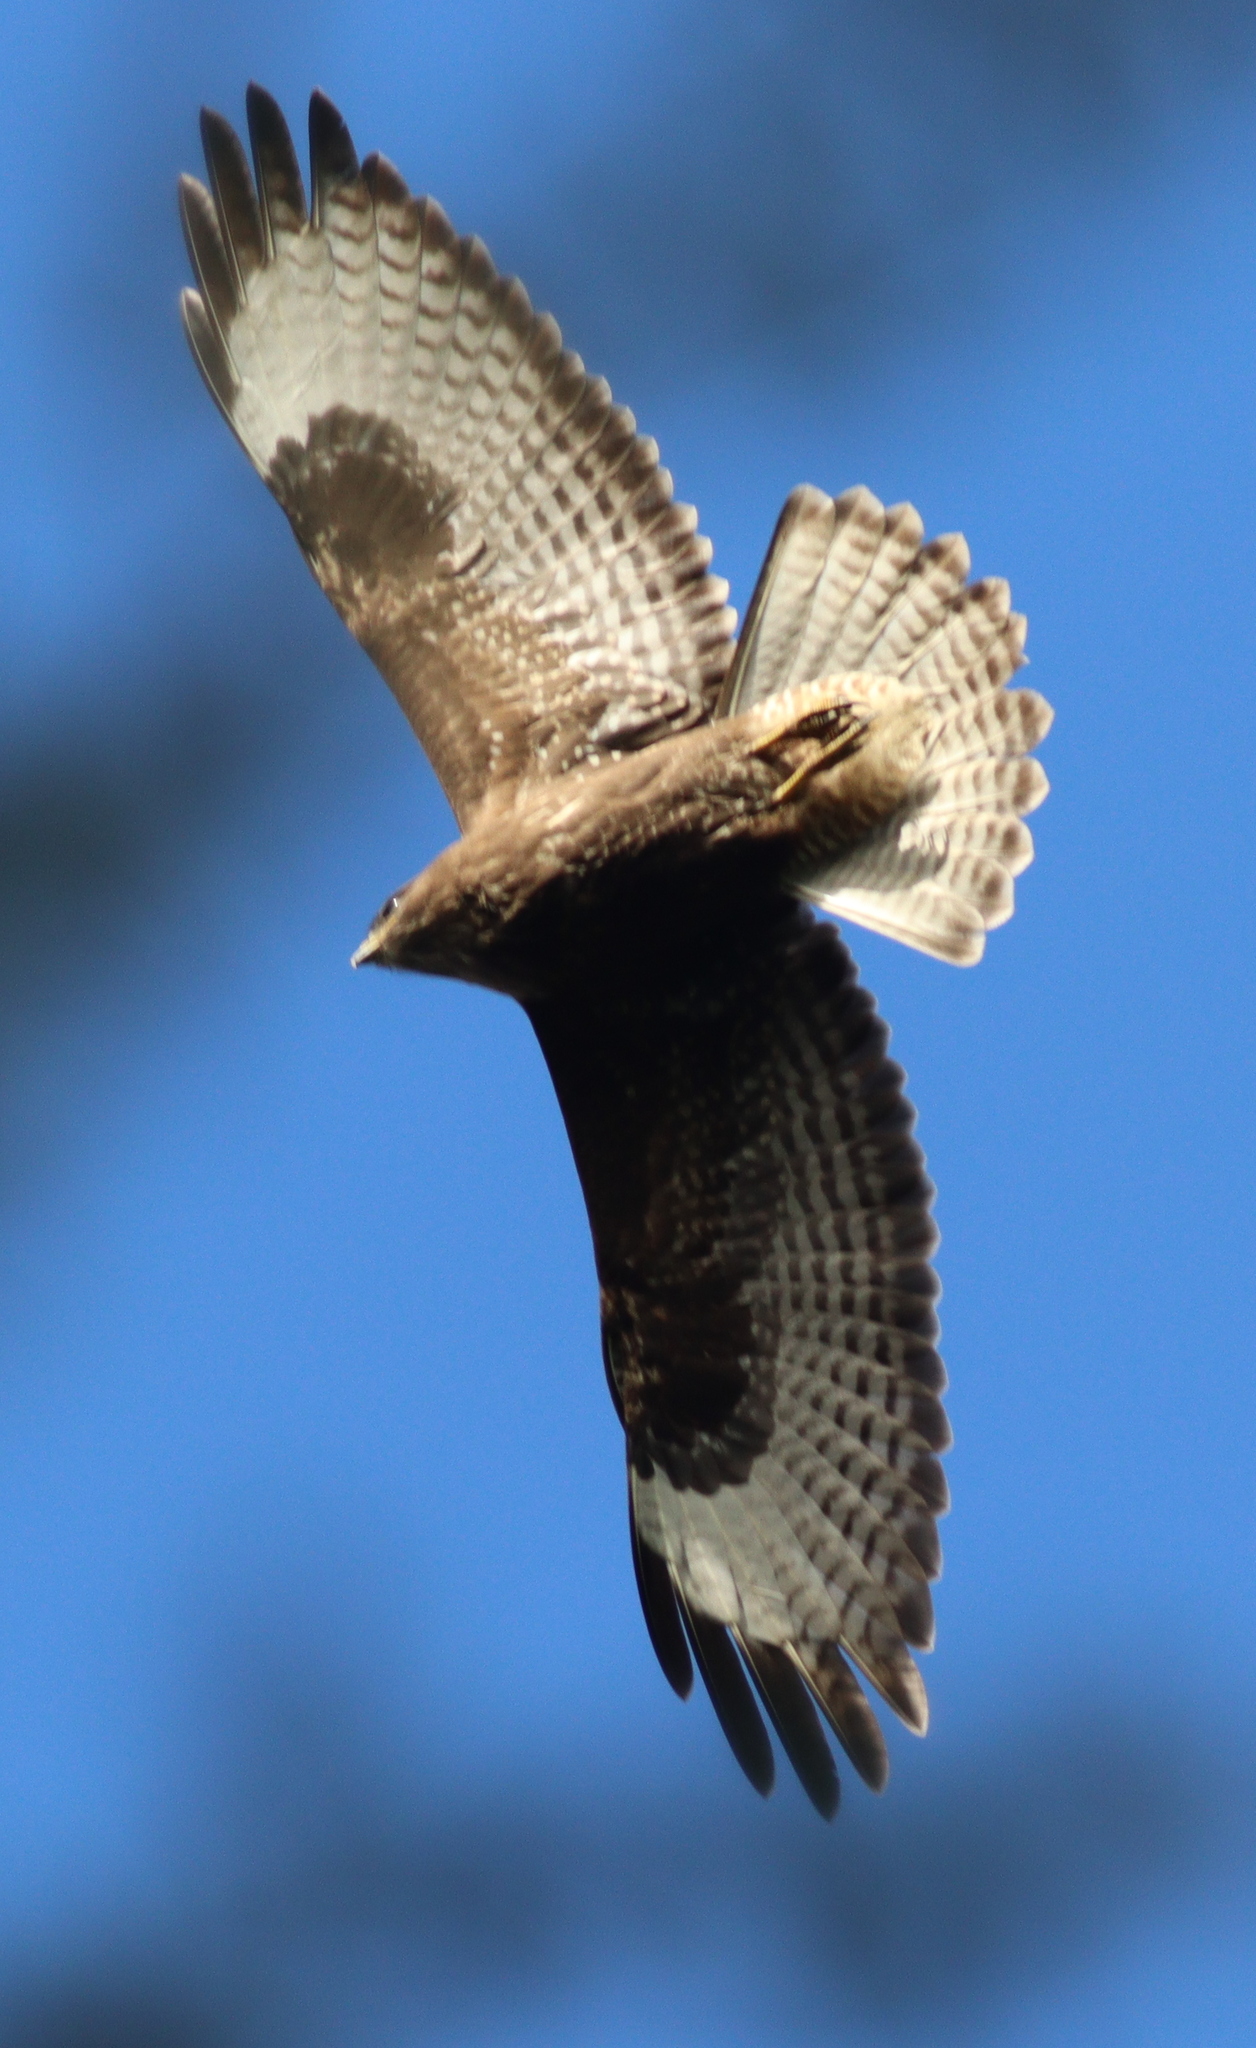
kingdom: Animalia
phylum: Chordata
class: Aves
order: Accipitriformes
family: Accipitridae
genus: Buteo
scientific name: Buteo buteo
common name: Common buzzard
